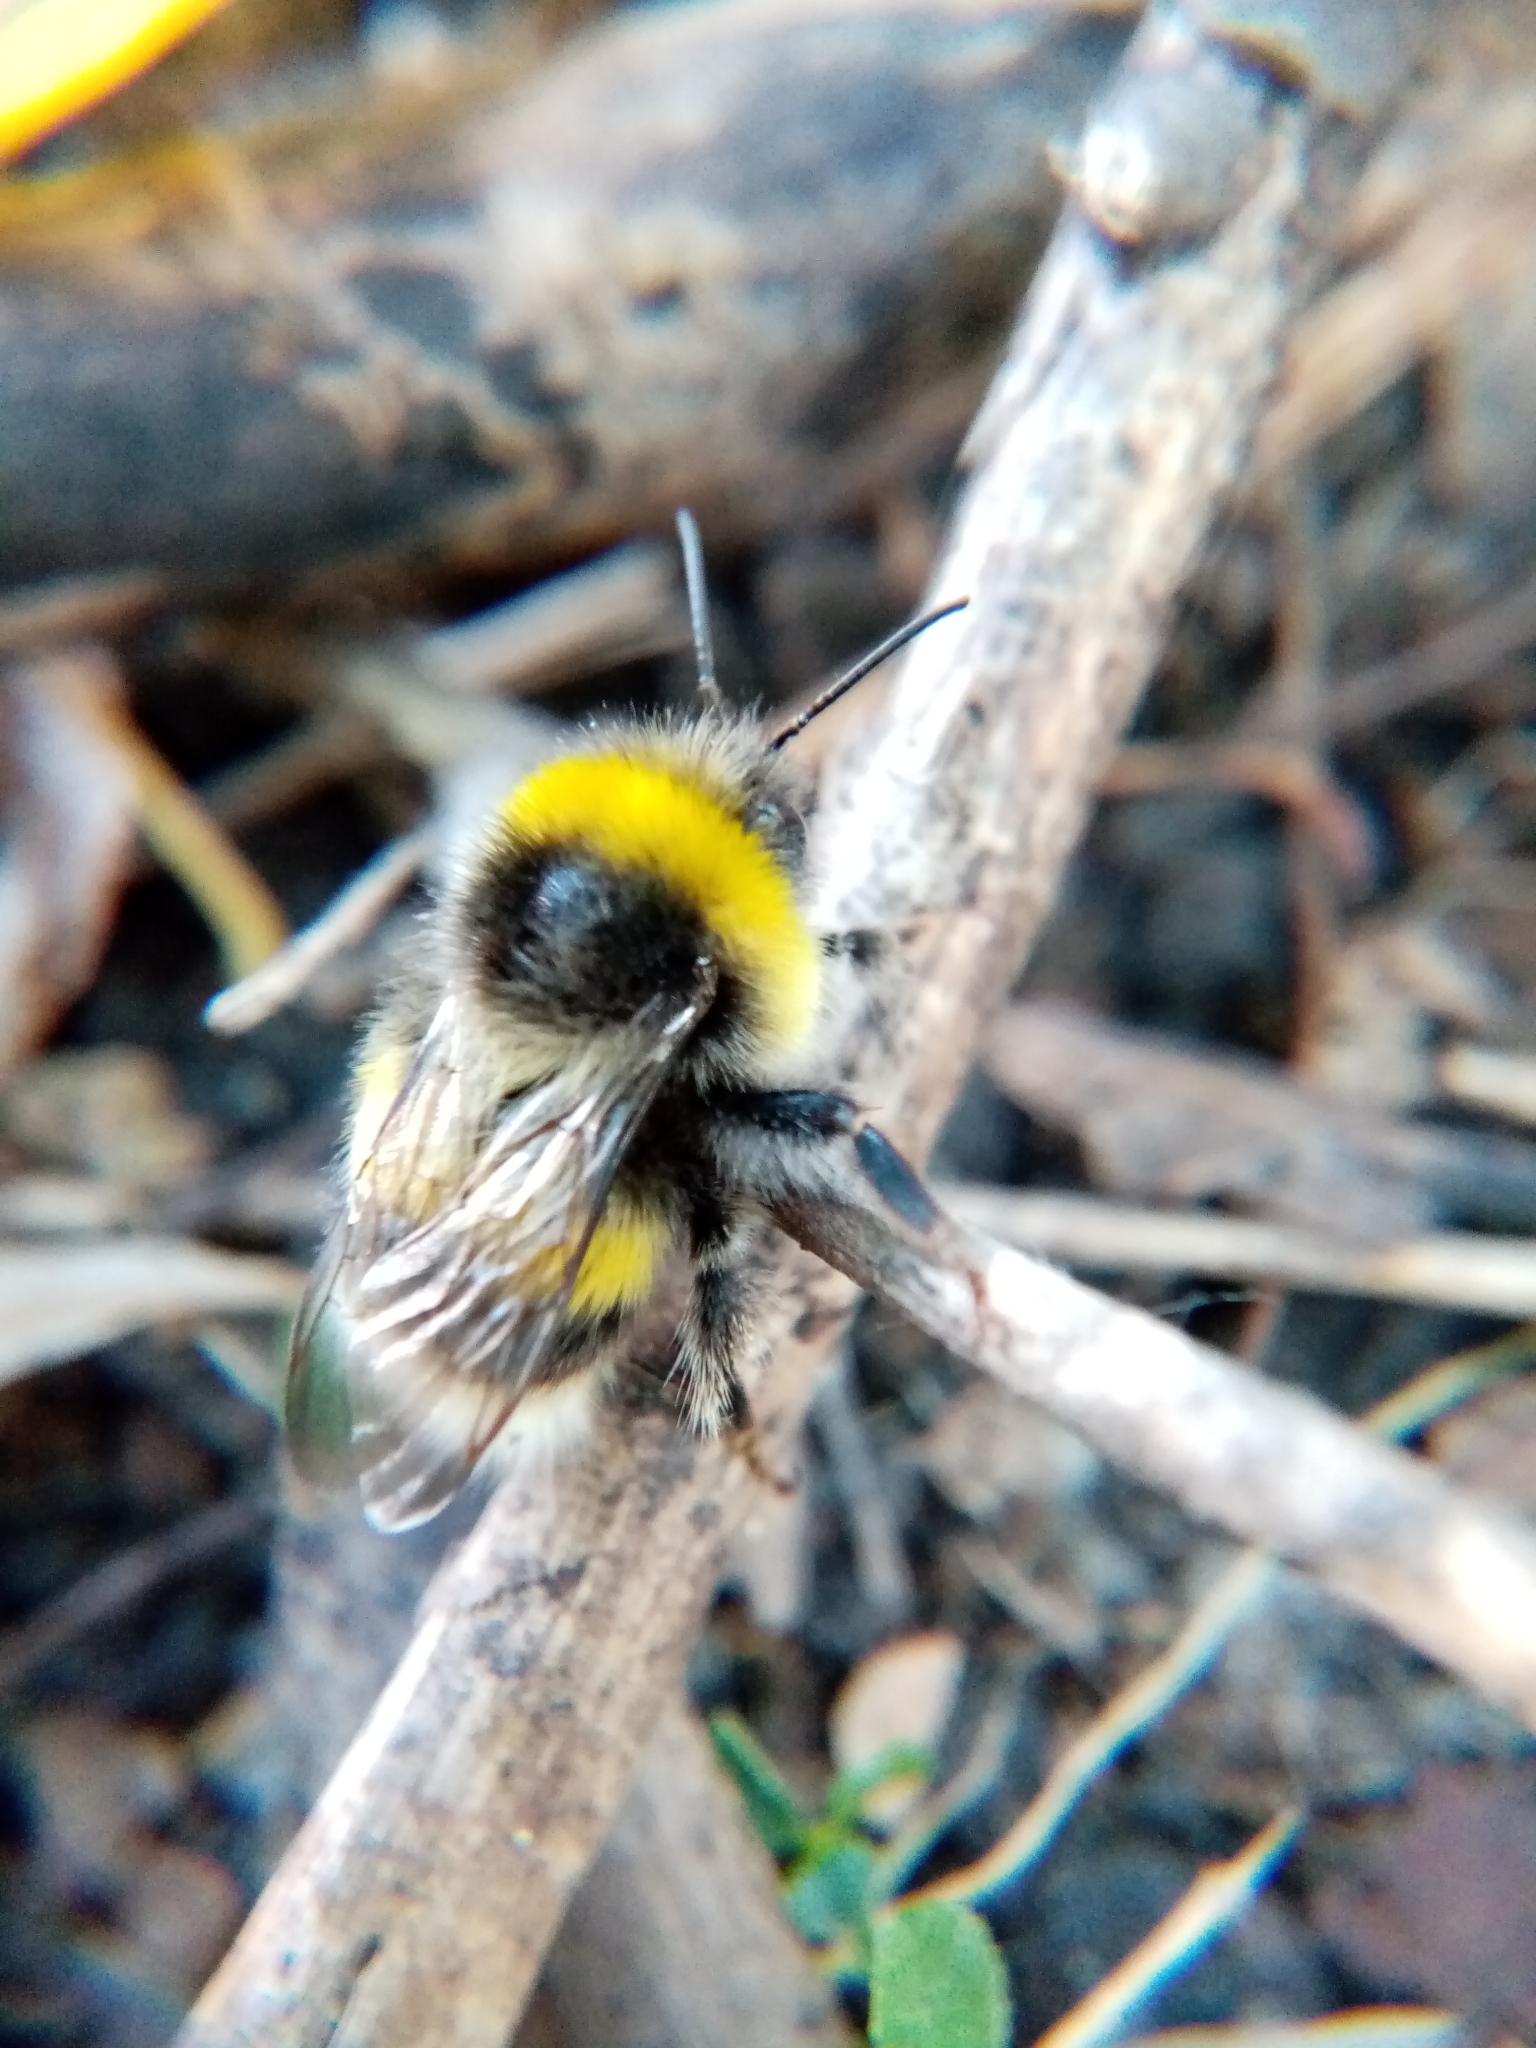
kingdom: Animalia
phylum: Arthropoda
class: Insecta
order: Hymenoptera
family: Apidae
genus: Bombus
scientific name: Bombus lucorum
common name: White-tailed bumblebee
